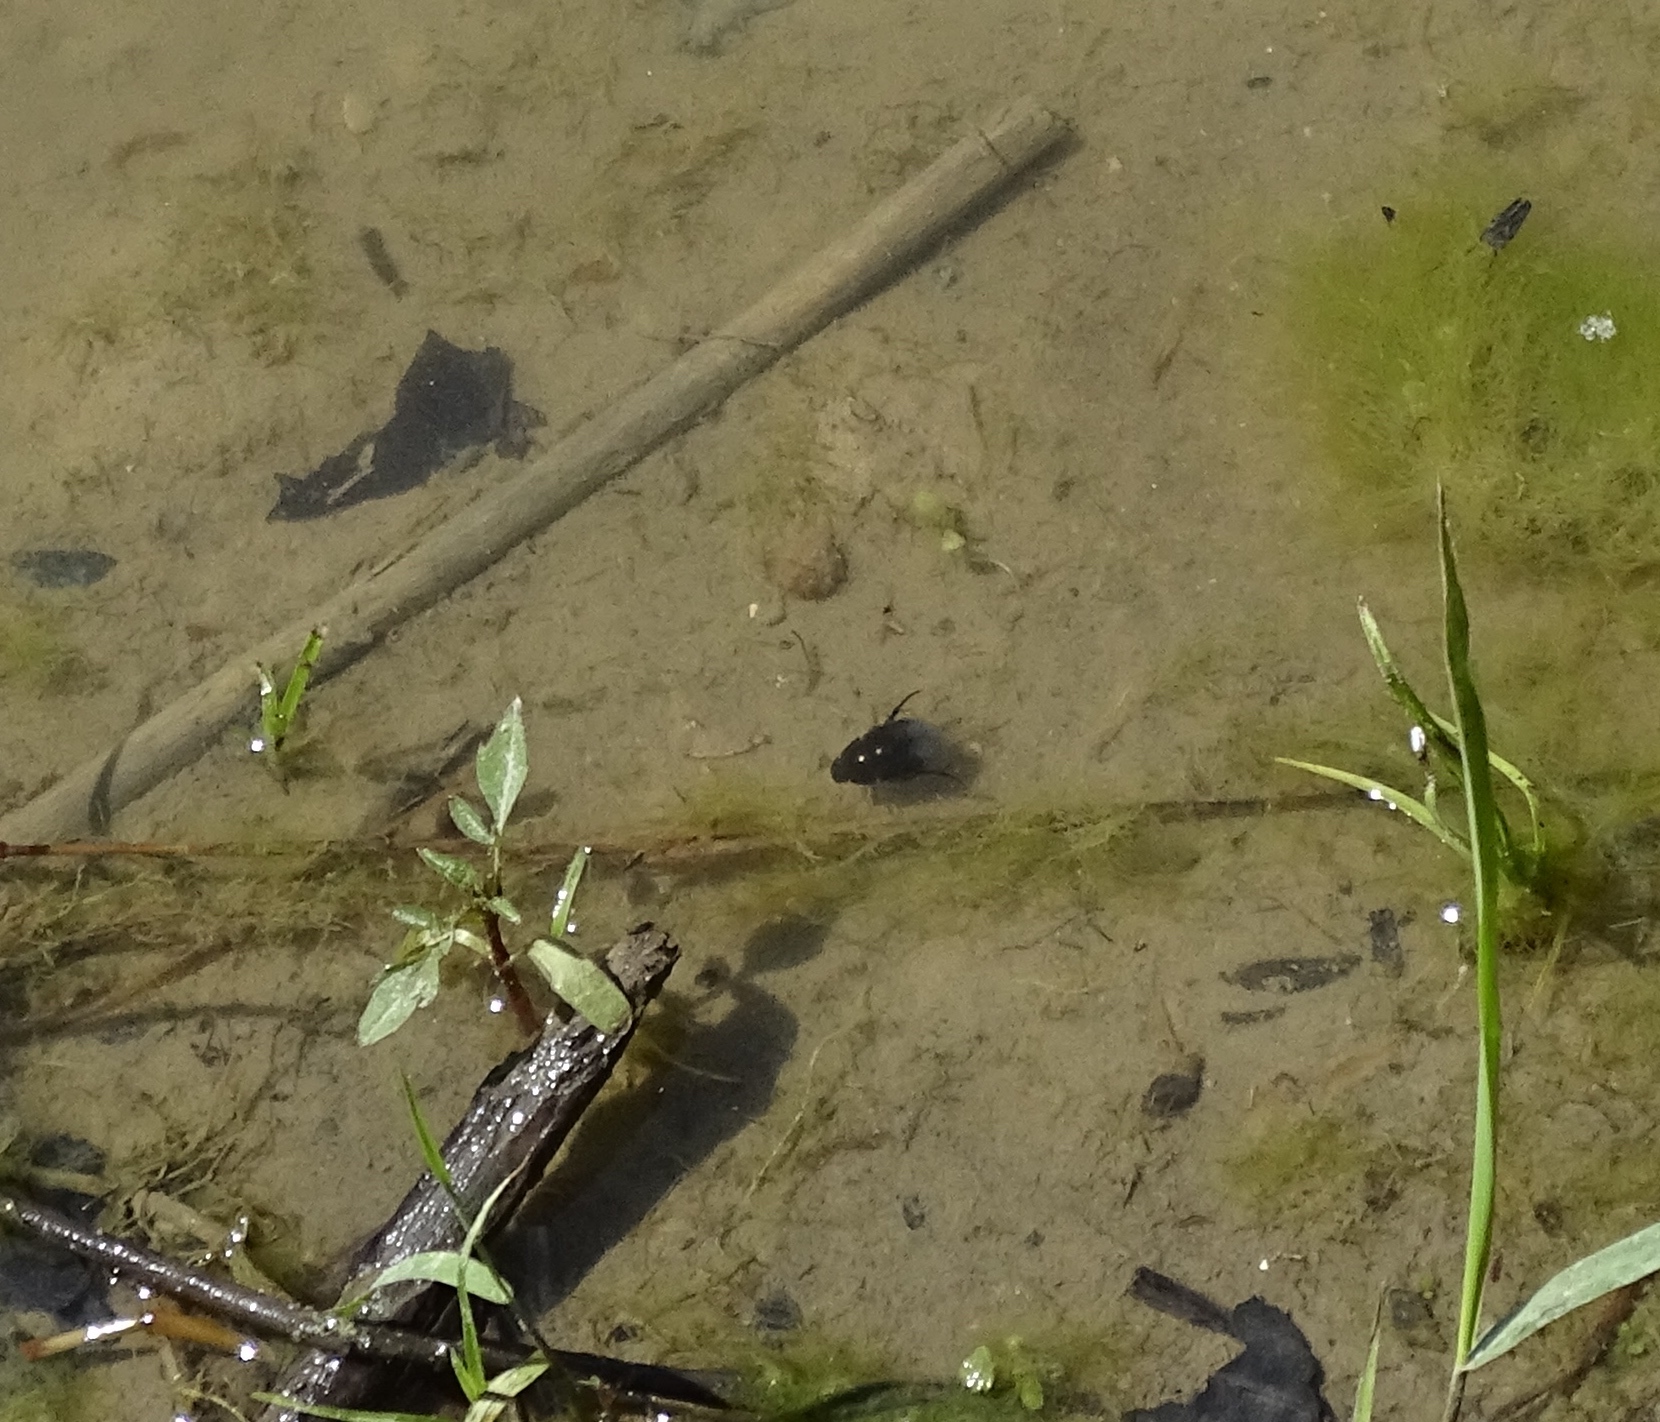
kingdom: Animalia
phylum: Arthropoda
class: Insecta
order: Coleoptera
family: Hydrophilidae
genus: Tropisternus
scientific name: Tropisternus
